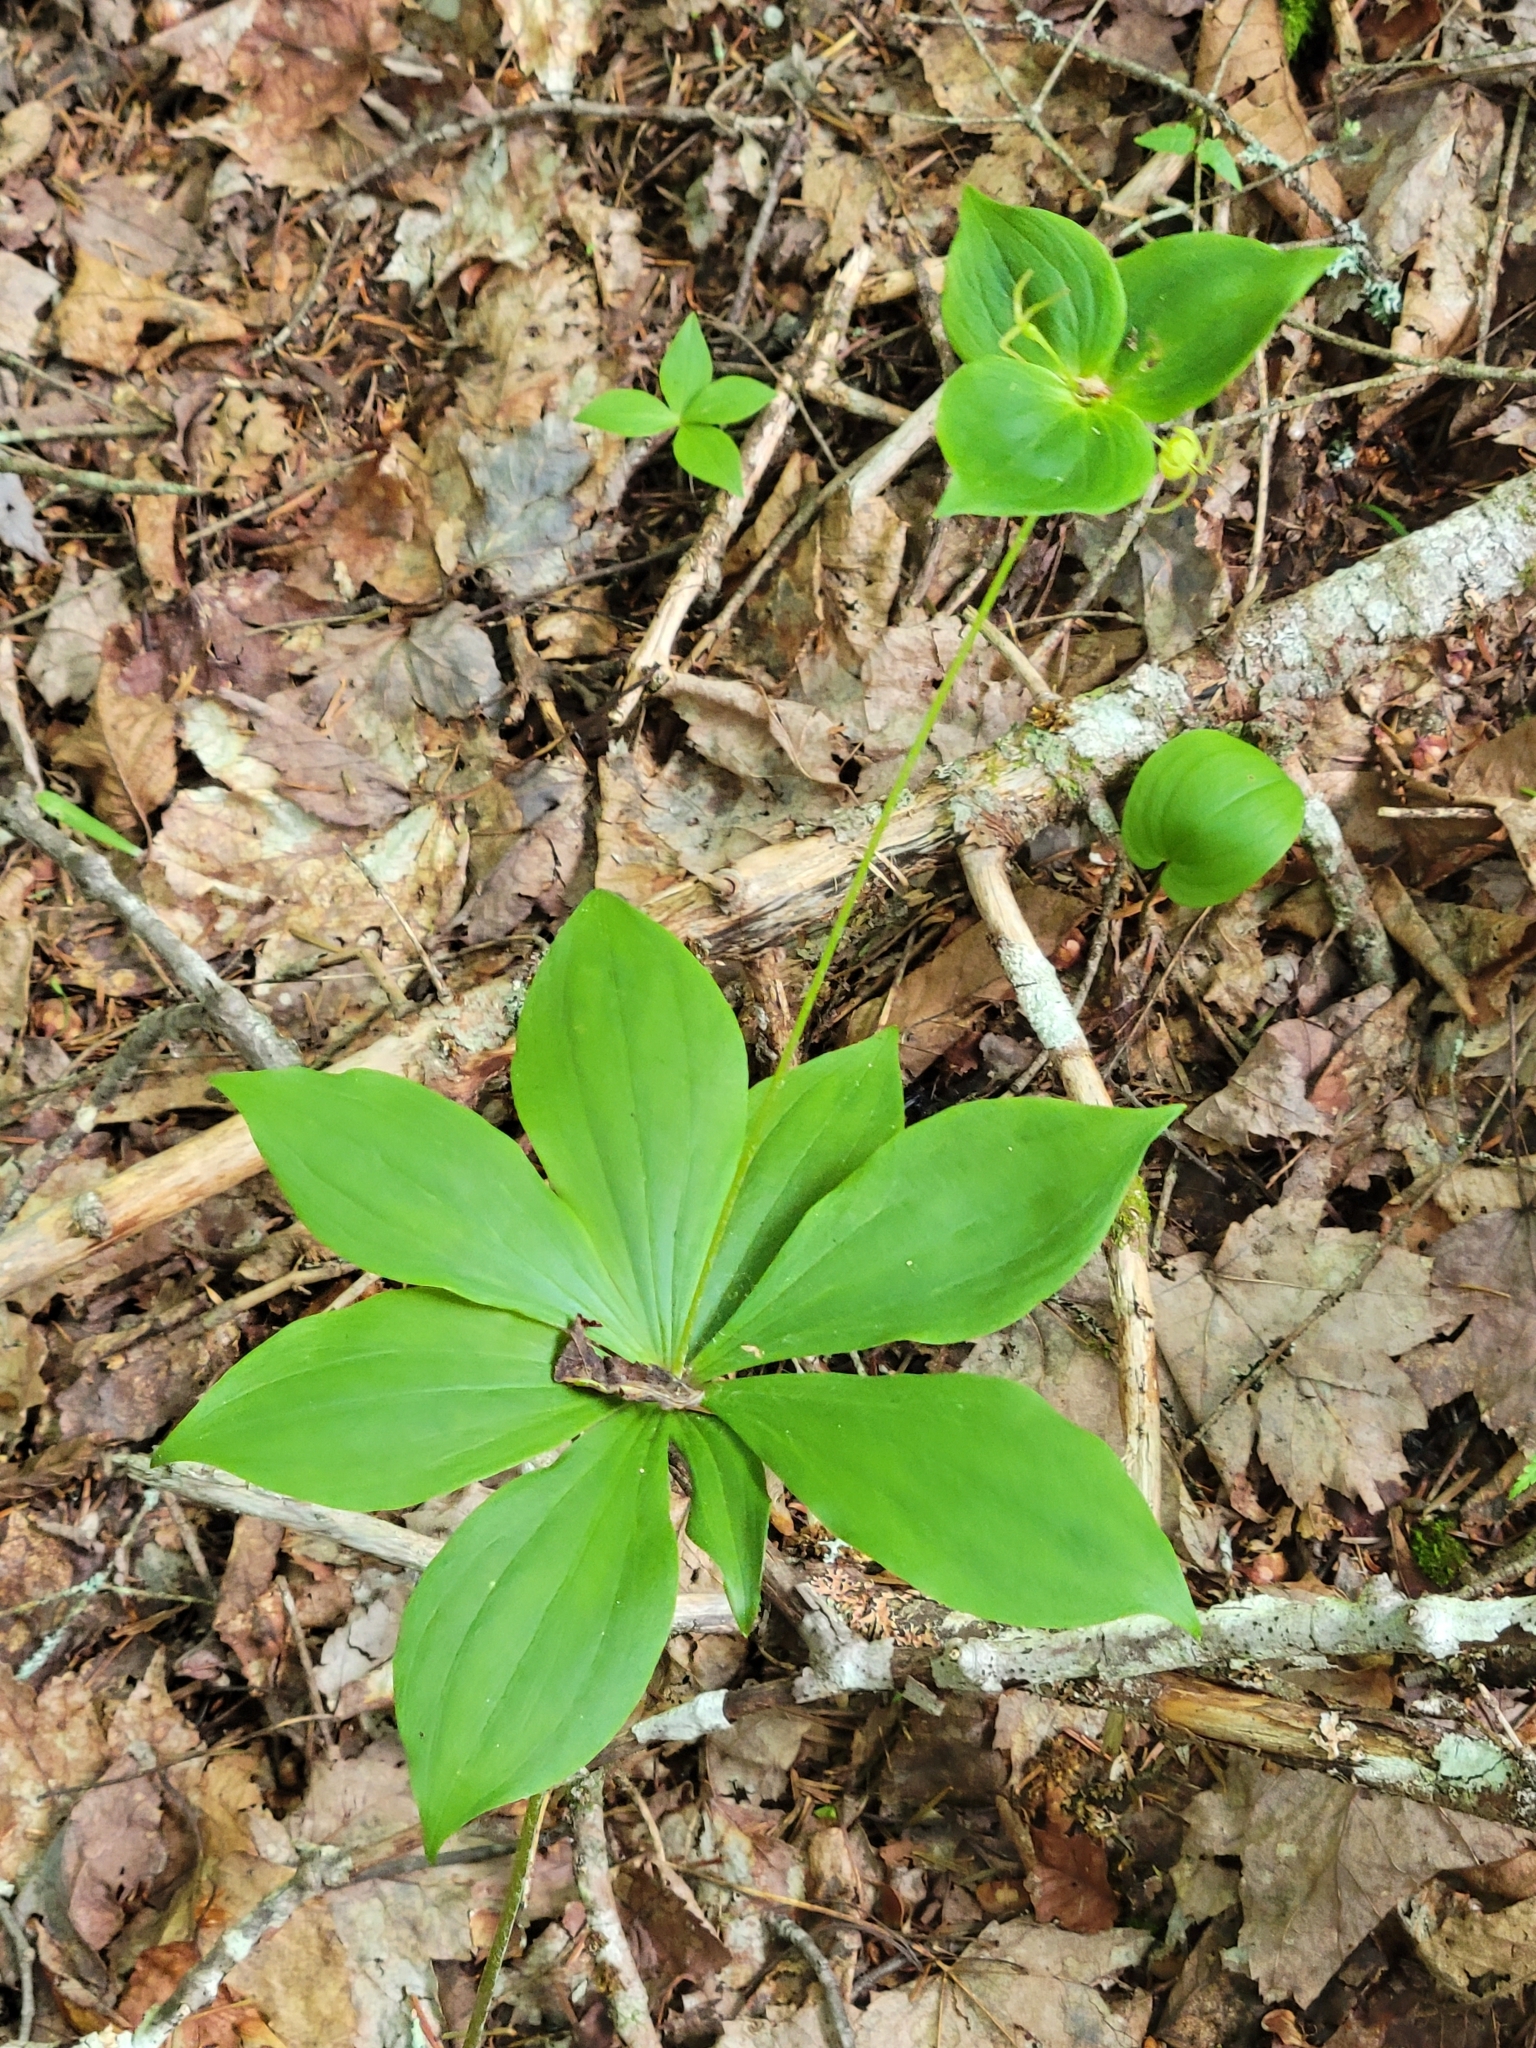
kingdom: Plantae
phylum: Tracheophyta
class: Liliopsida
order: Liliales
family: Liliaceae
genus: Medeola
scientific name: Medeola virginiana
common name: Indian cucumber-root
